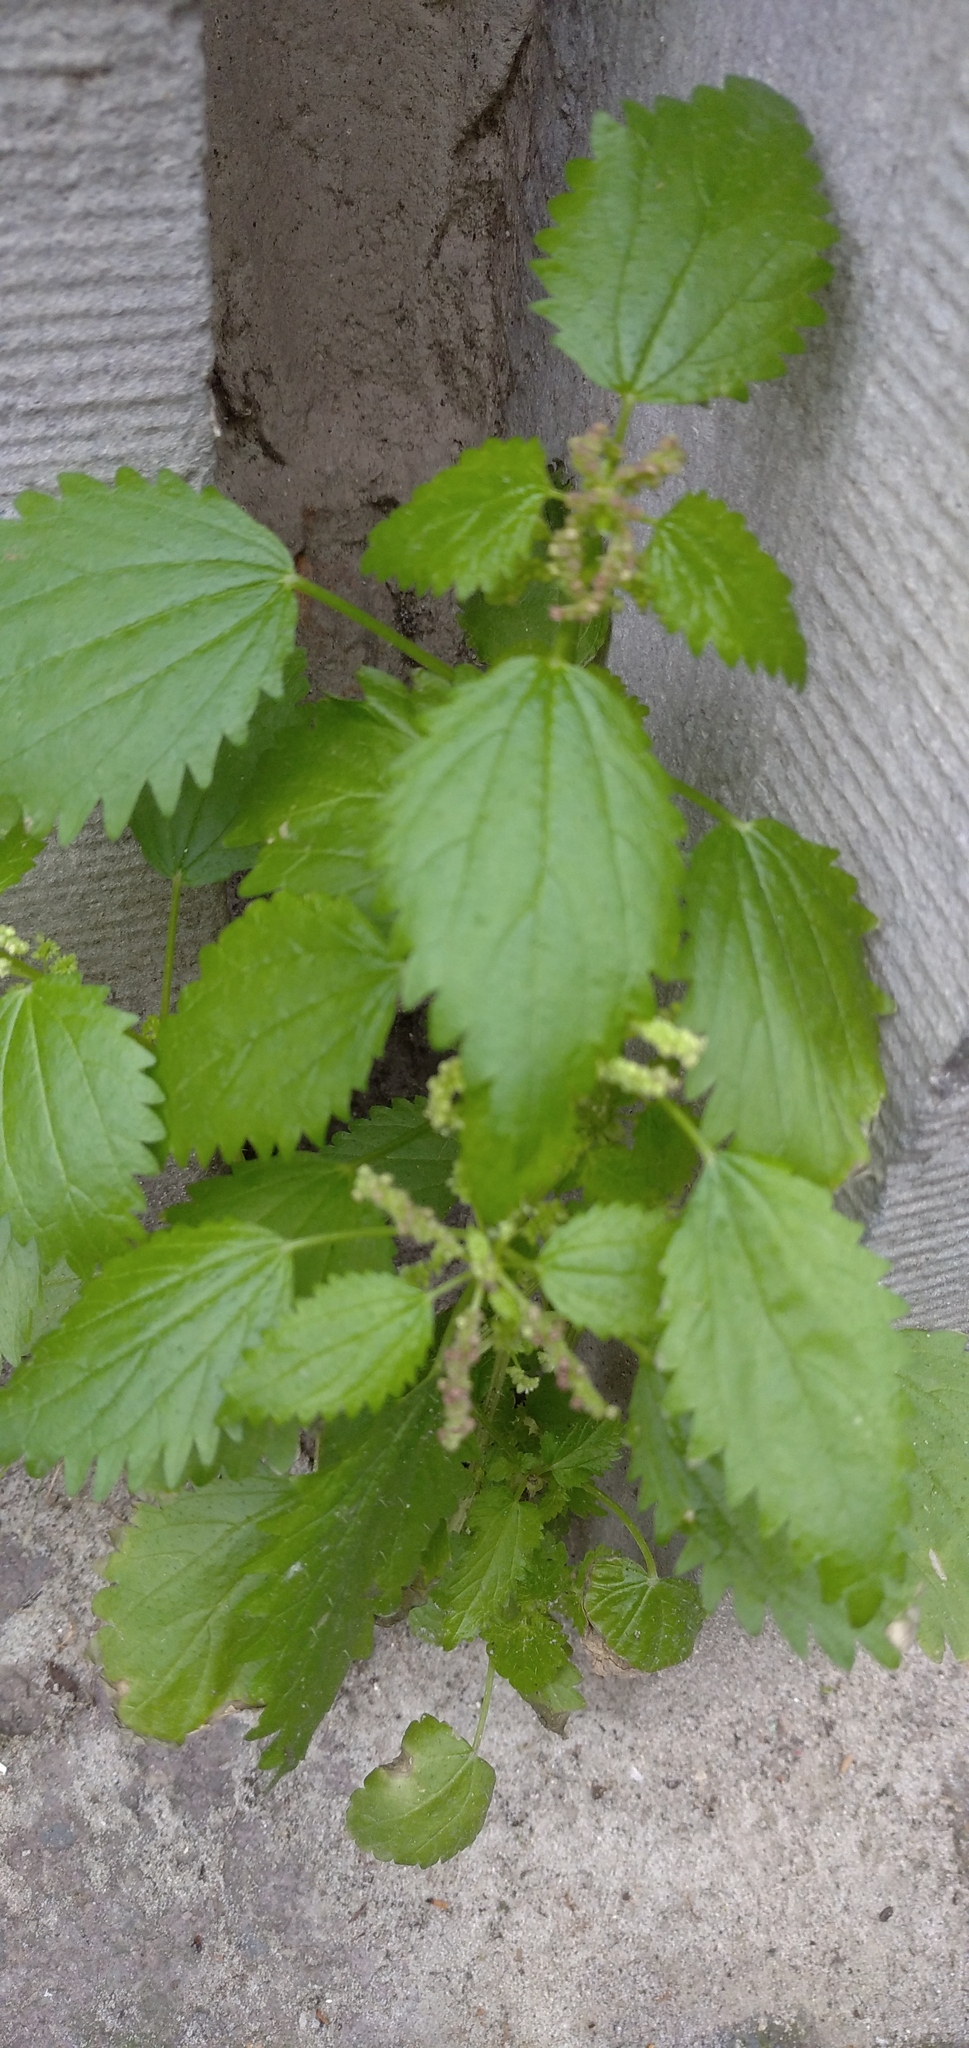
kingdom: Plantae
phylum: Tracheophyta
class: Magnoliopsida
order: Rosales
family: Urticaceae
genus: Urtica
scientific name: Urtica membranacea
